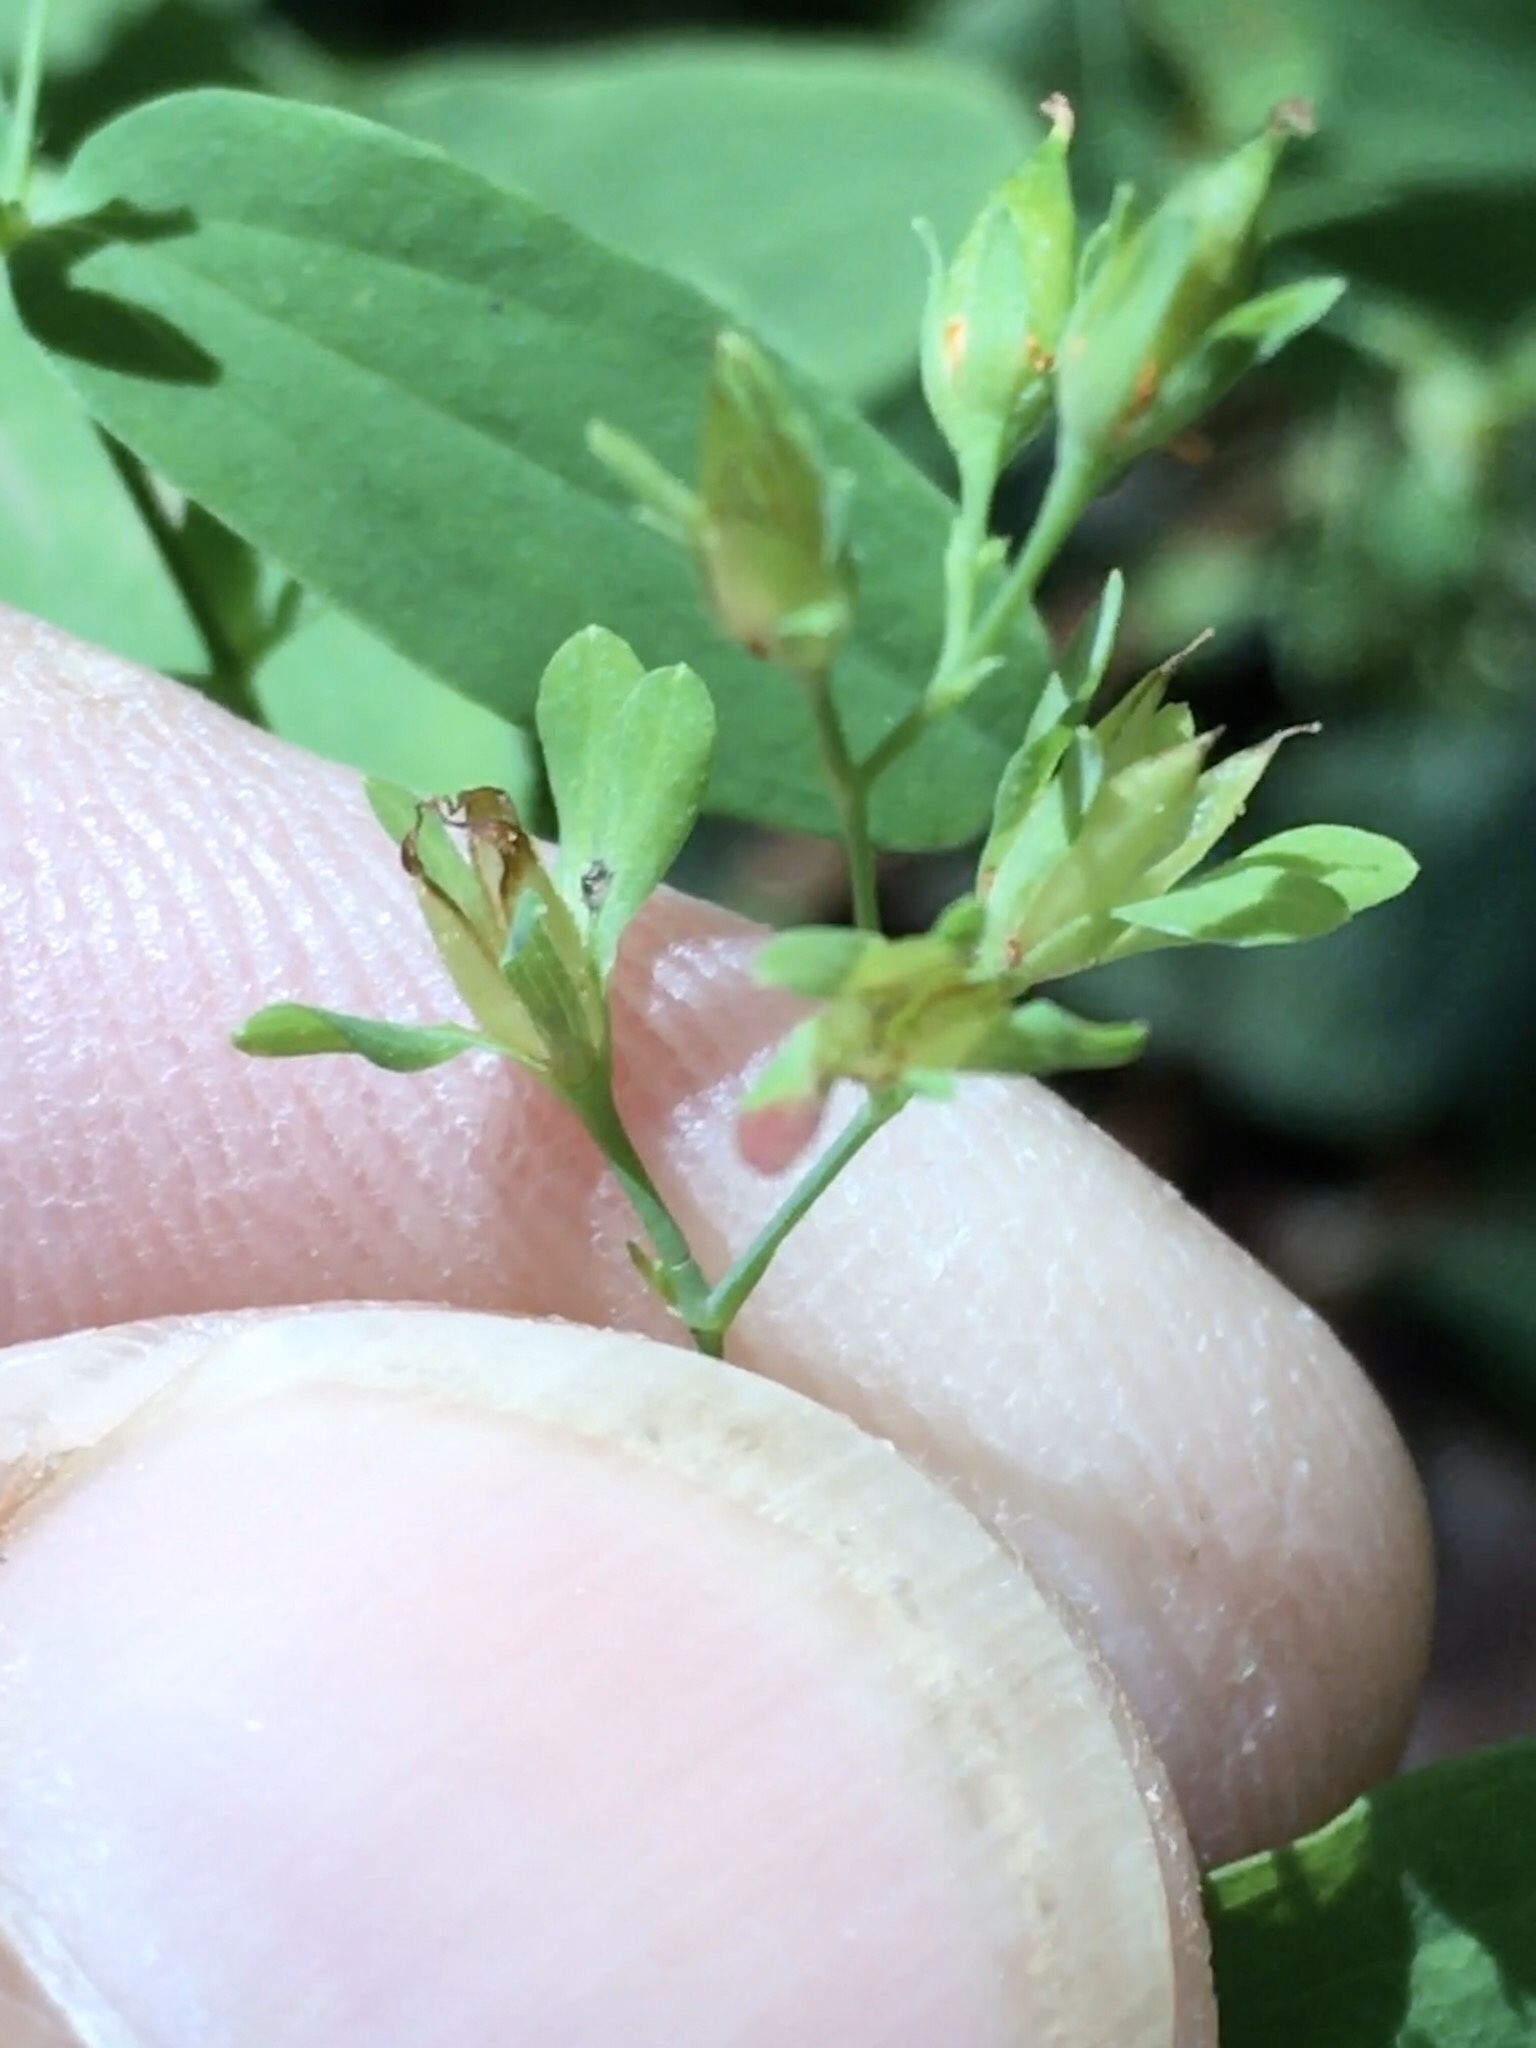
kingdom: Plantae
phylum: Tracheophyta
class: Magnoliopsida
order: Malpighiales
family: Hypericaceae
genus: Hypericum
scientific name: Hypericum mutilum
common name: Dwarf st. john's-wort
